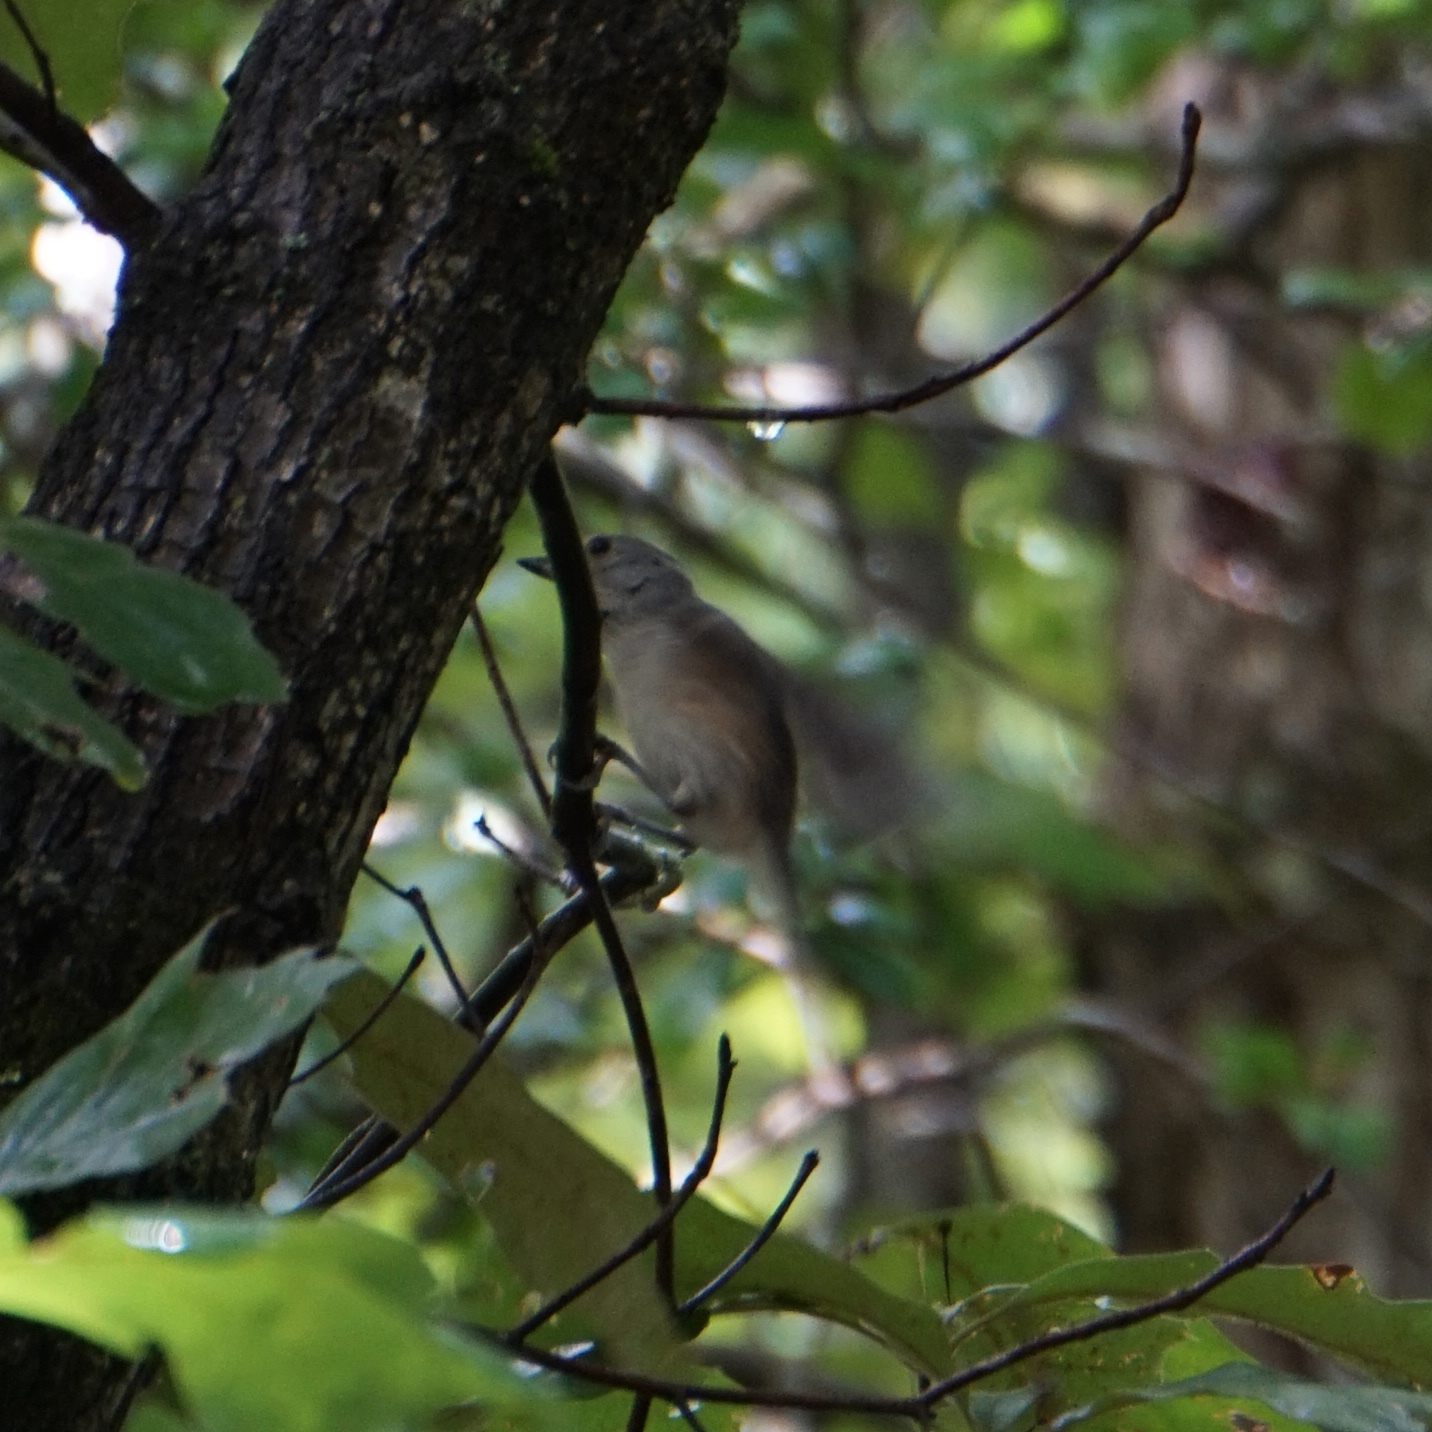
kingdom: Animalia
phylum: Chordata
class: Aves
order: Passeriformes
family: Paridae
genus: Baeolophus
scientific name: Baeolophus bicolor
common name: Tufted titmouse
